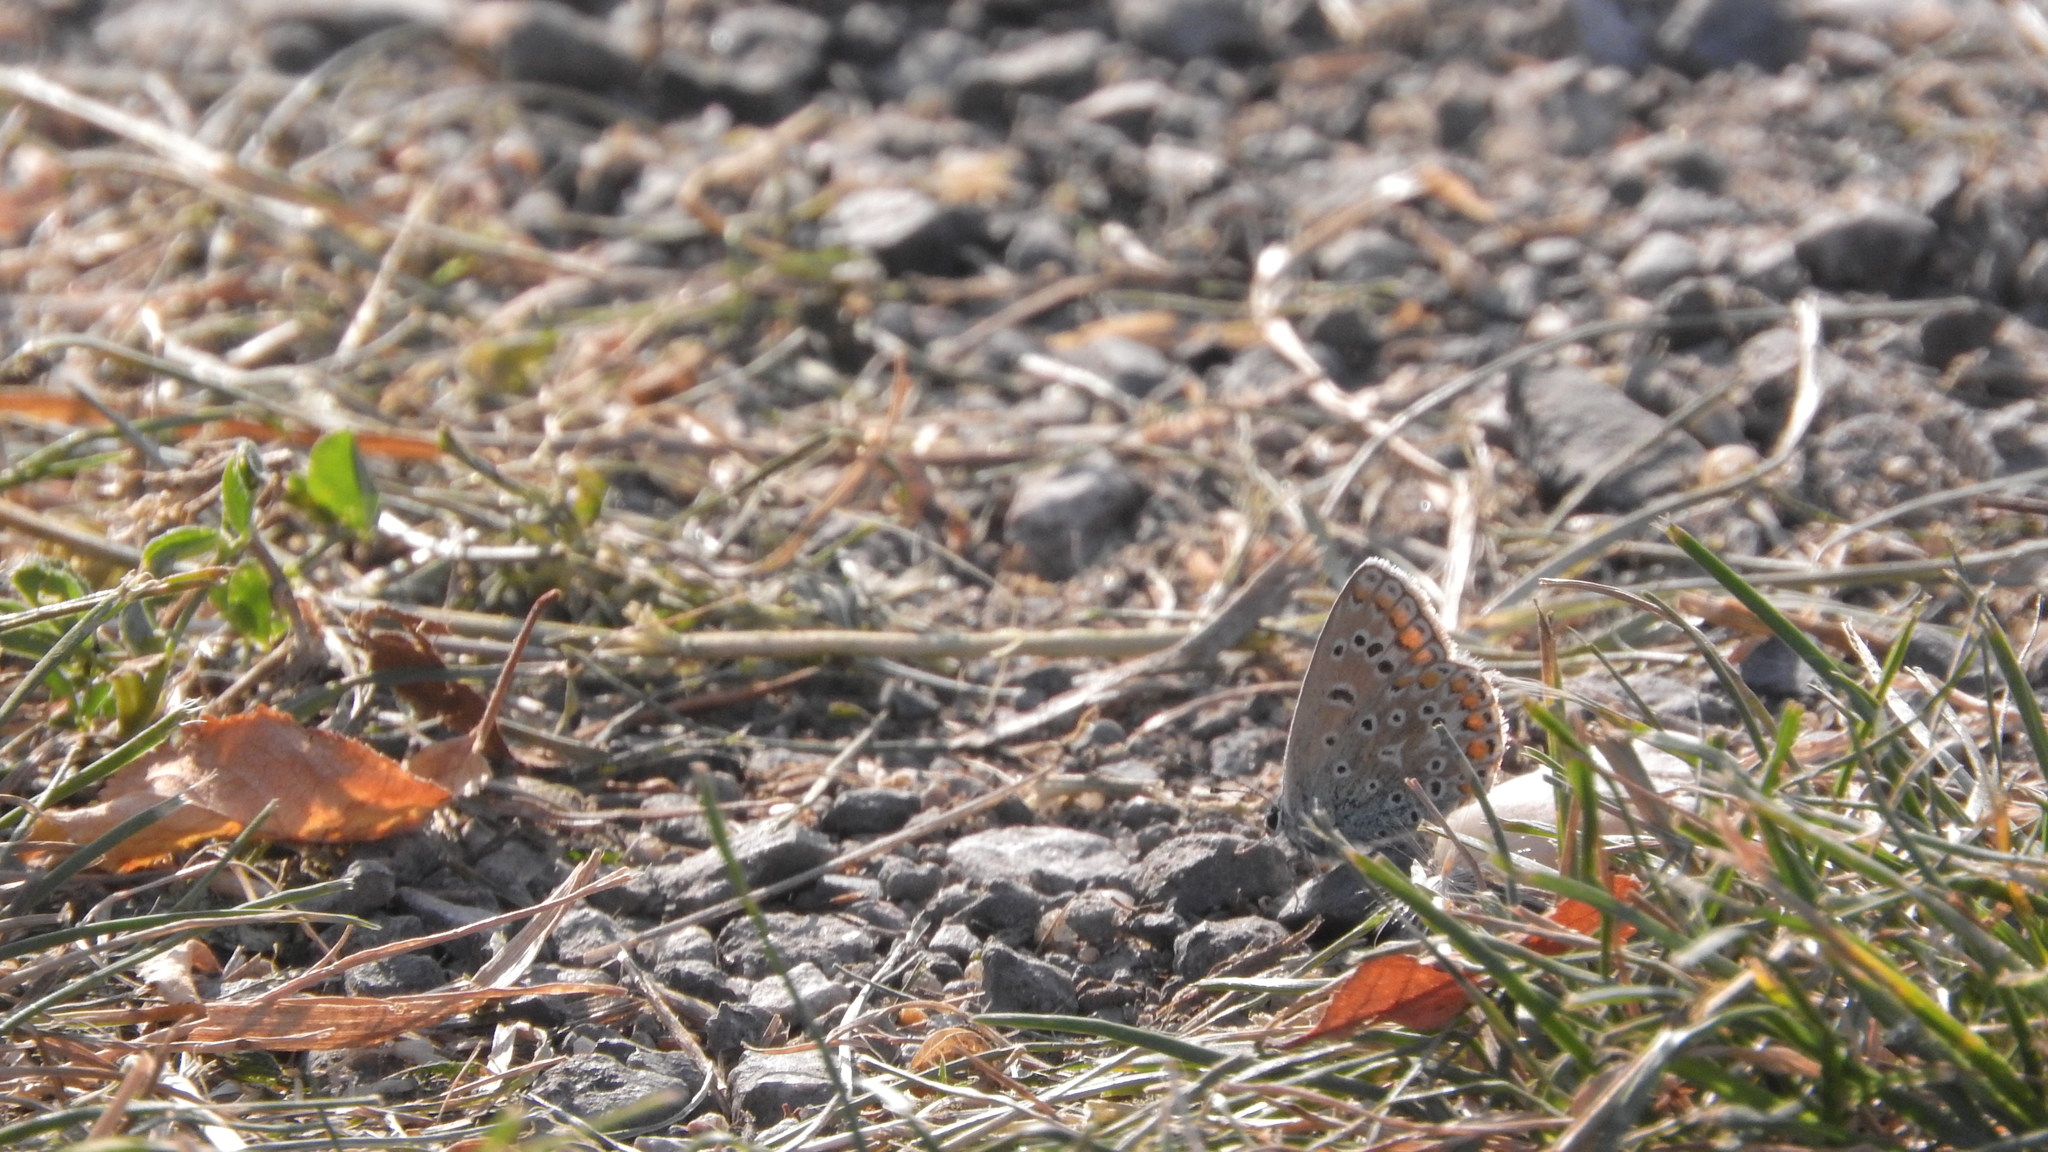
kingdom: Animalia
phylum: Arthropoda
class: Insecta
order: Lepidoptera
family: Lycaenidae
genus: Polyommatus
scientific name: Polyommatus icarus
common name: Common blue
